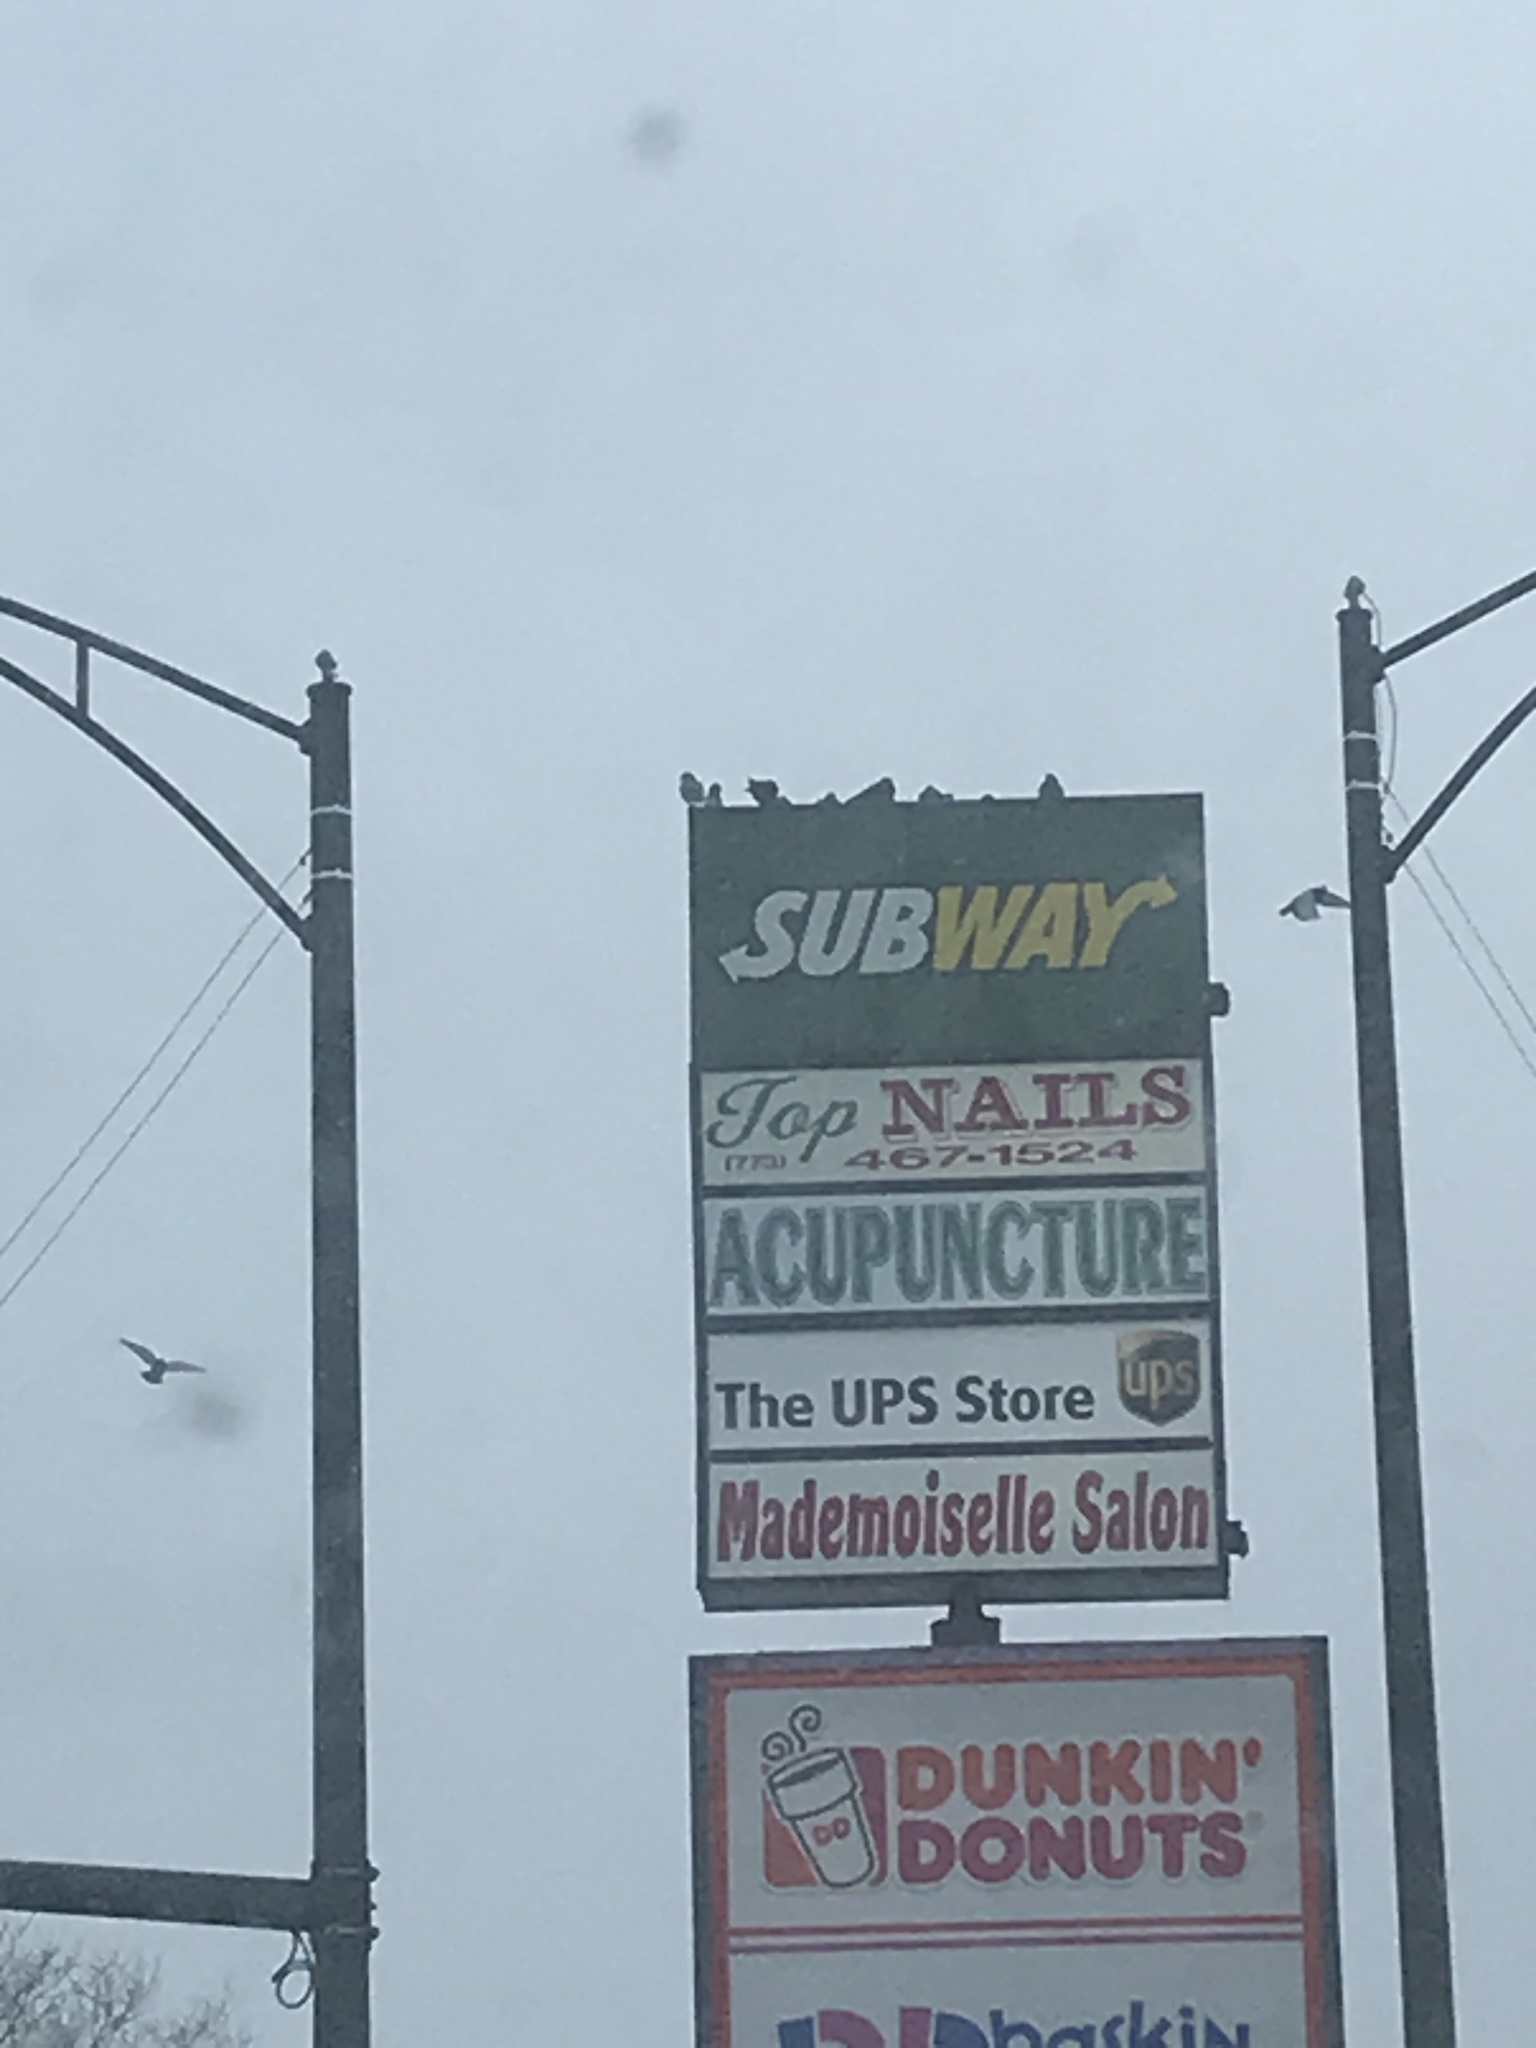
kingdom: Animalia
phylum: Chordata
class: Aves
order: Columbiformes
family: Columbidae
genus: Columba
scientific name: Columba livia
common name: Rock pigeon
